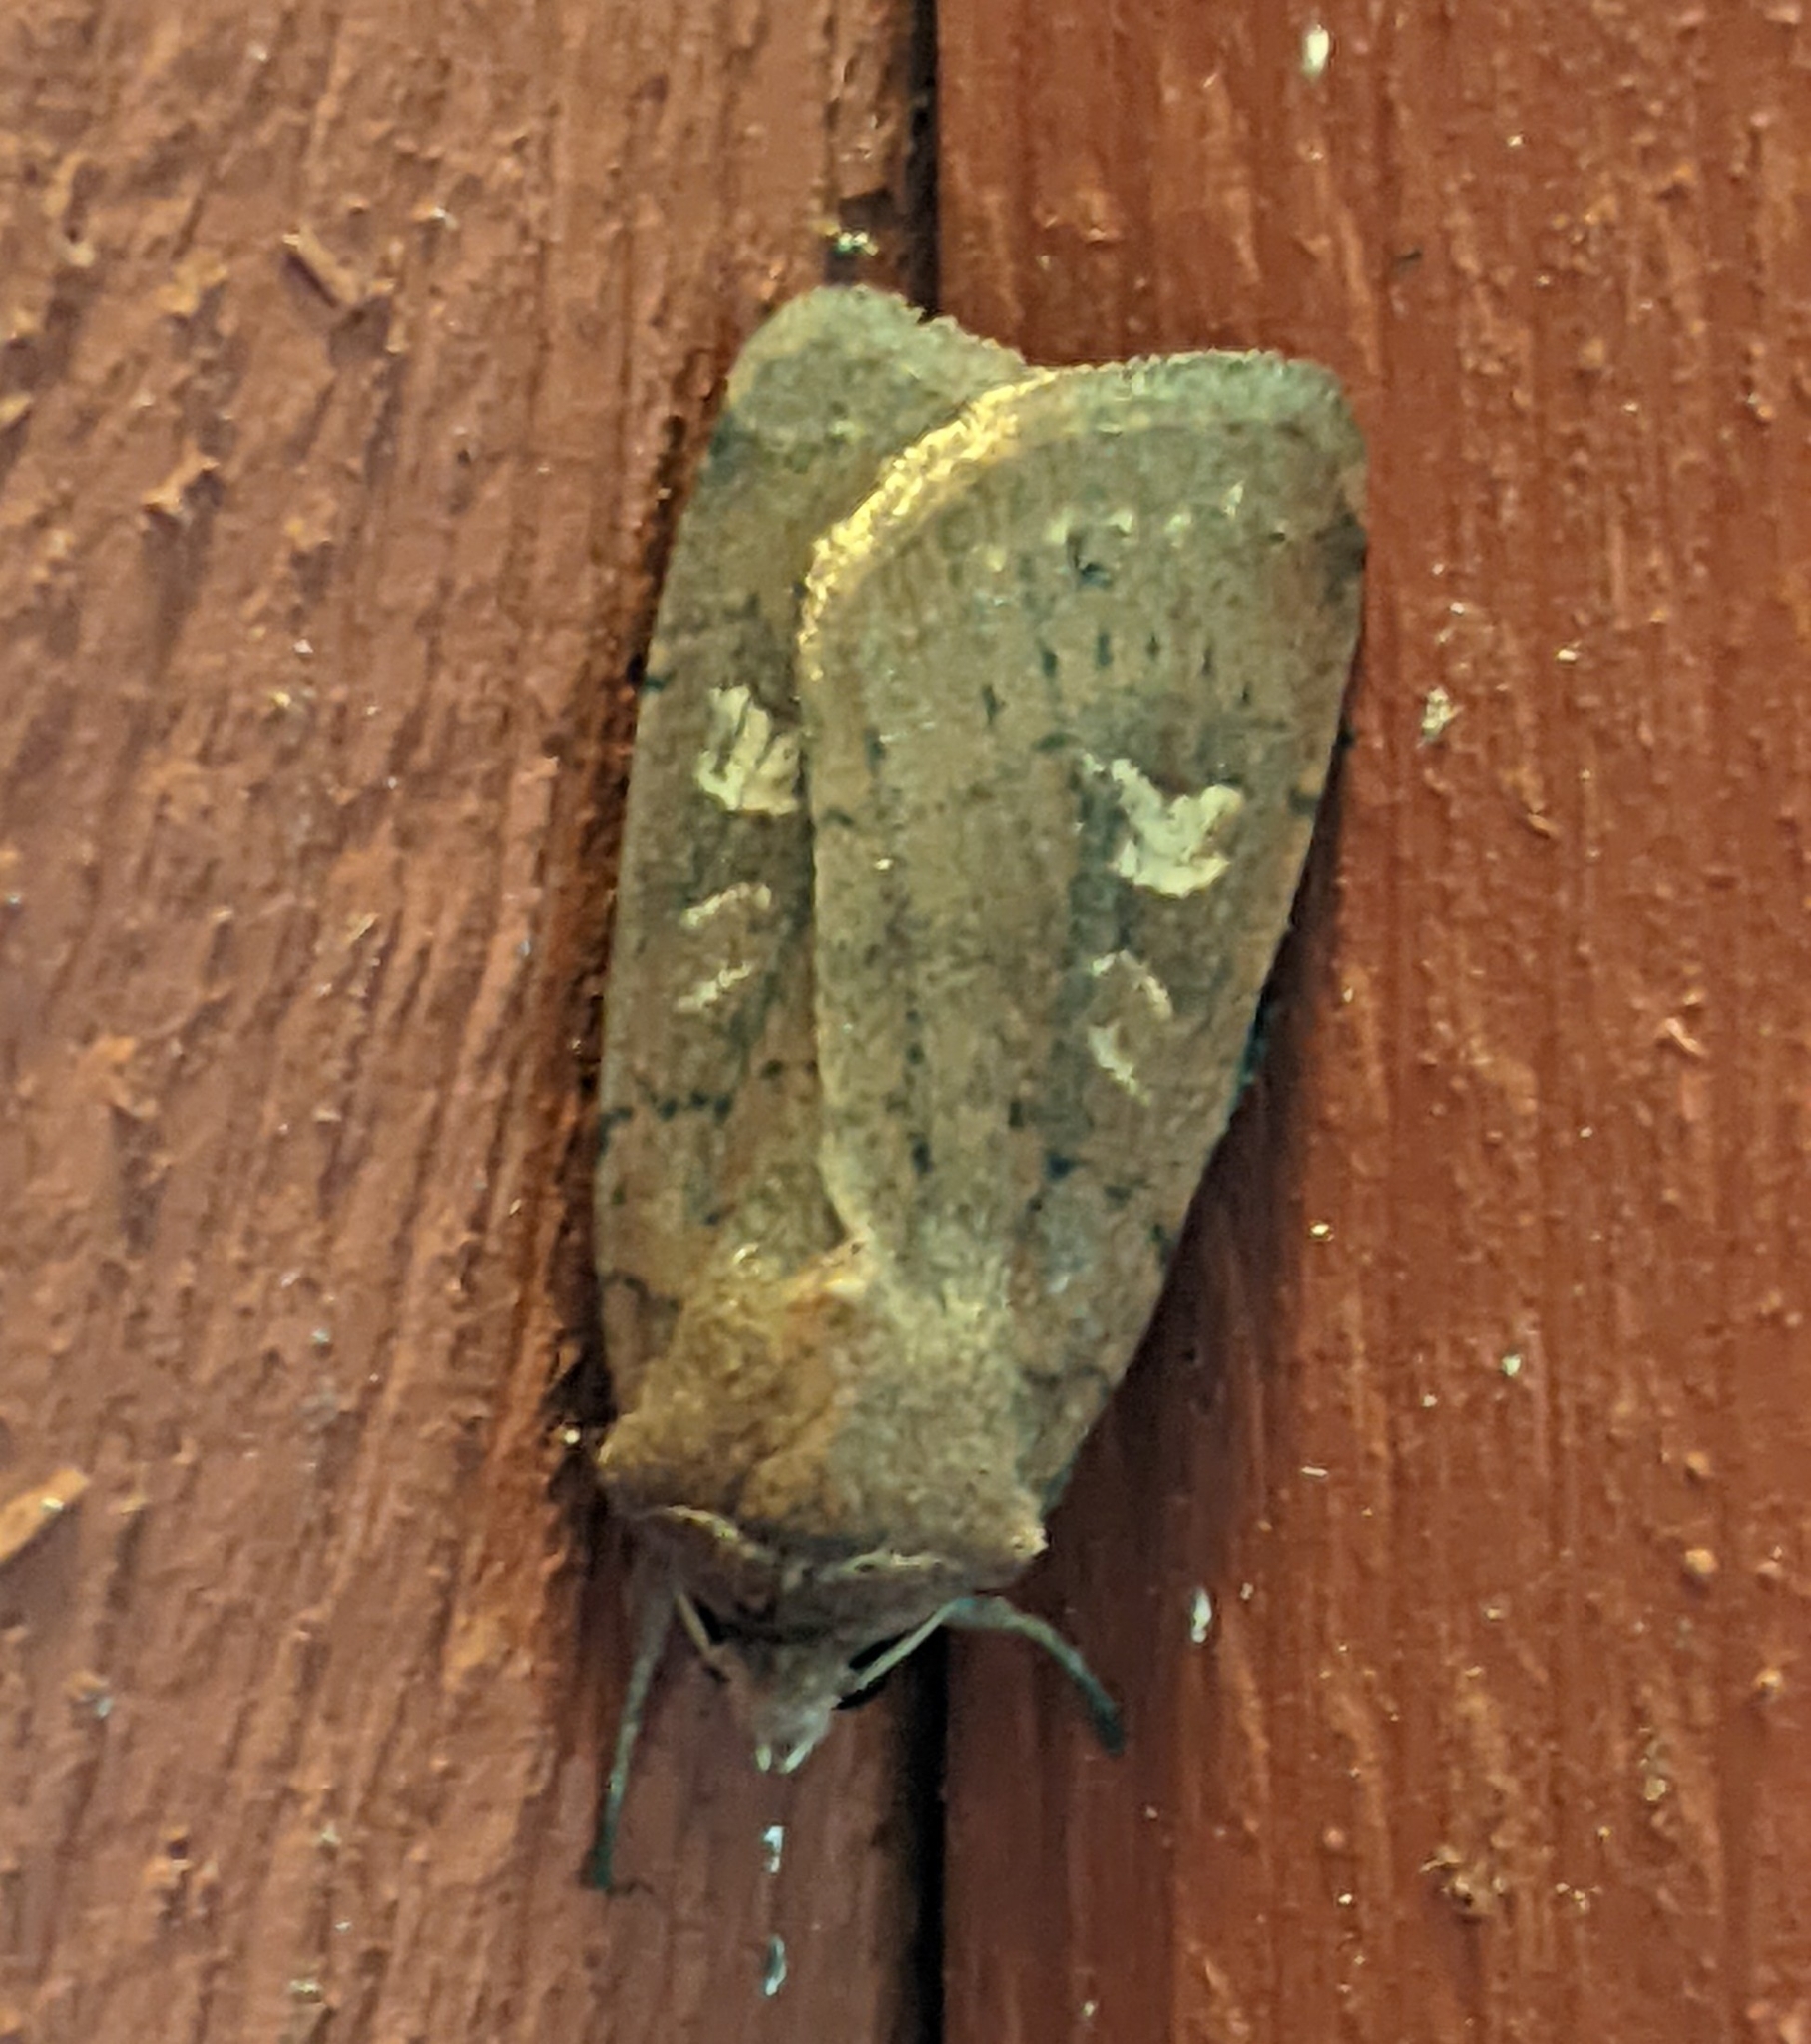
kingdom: Animalia
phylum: Arthropoda
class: Insecta
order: Lepidoptera
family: Noctuidae
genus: Xestia
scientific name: Xestia xanthographa
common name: Square-spot rustic
